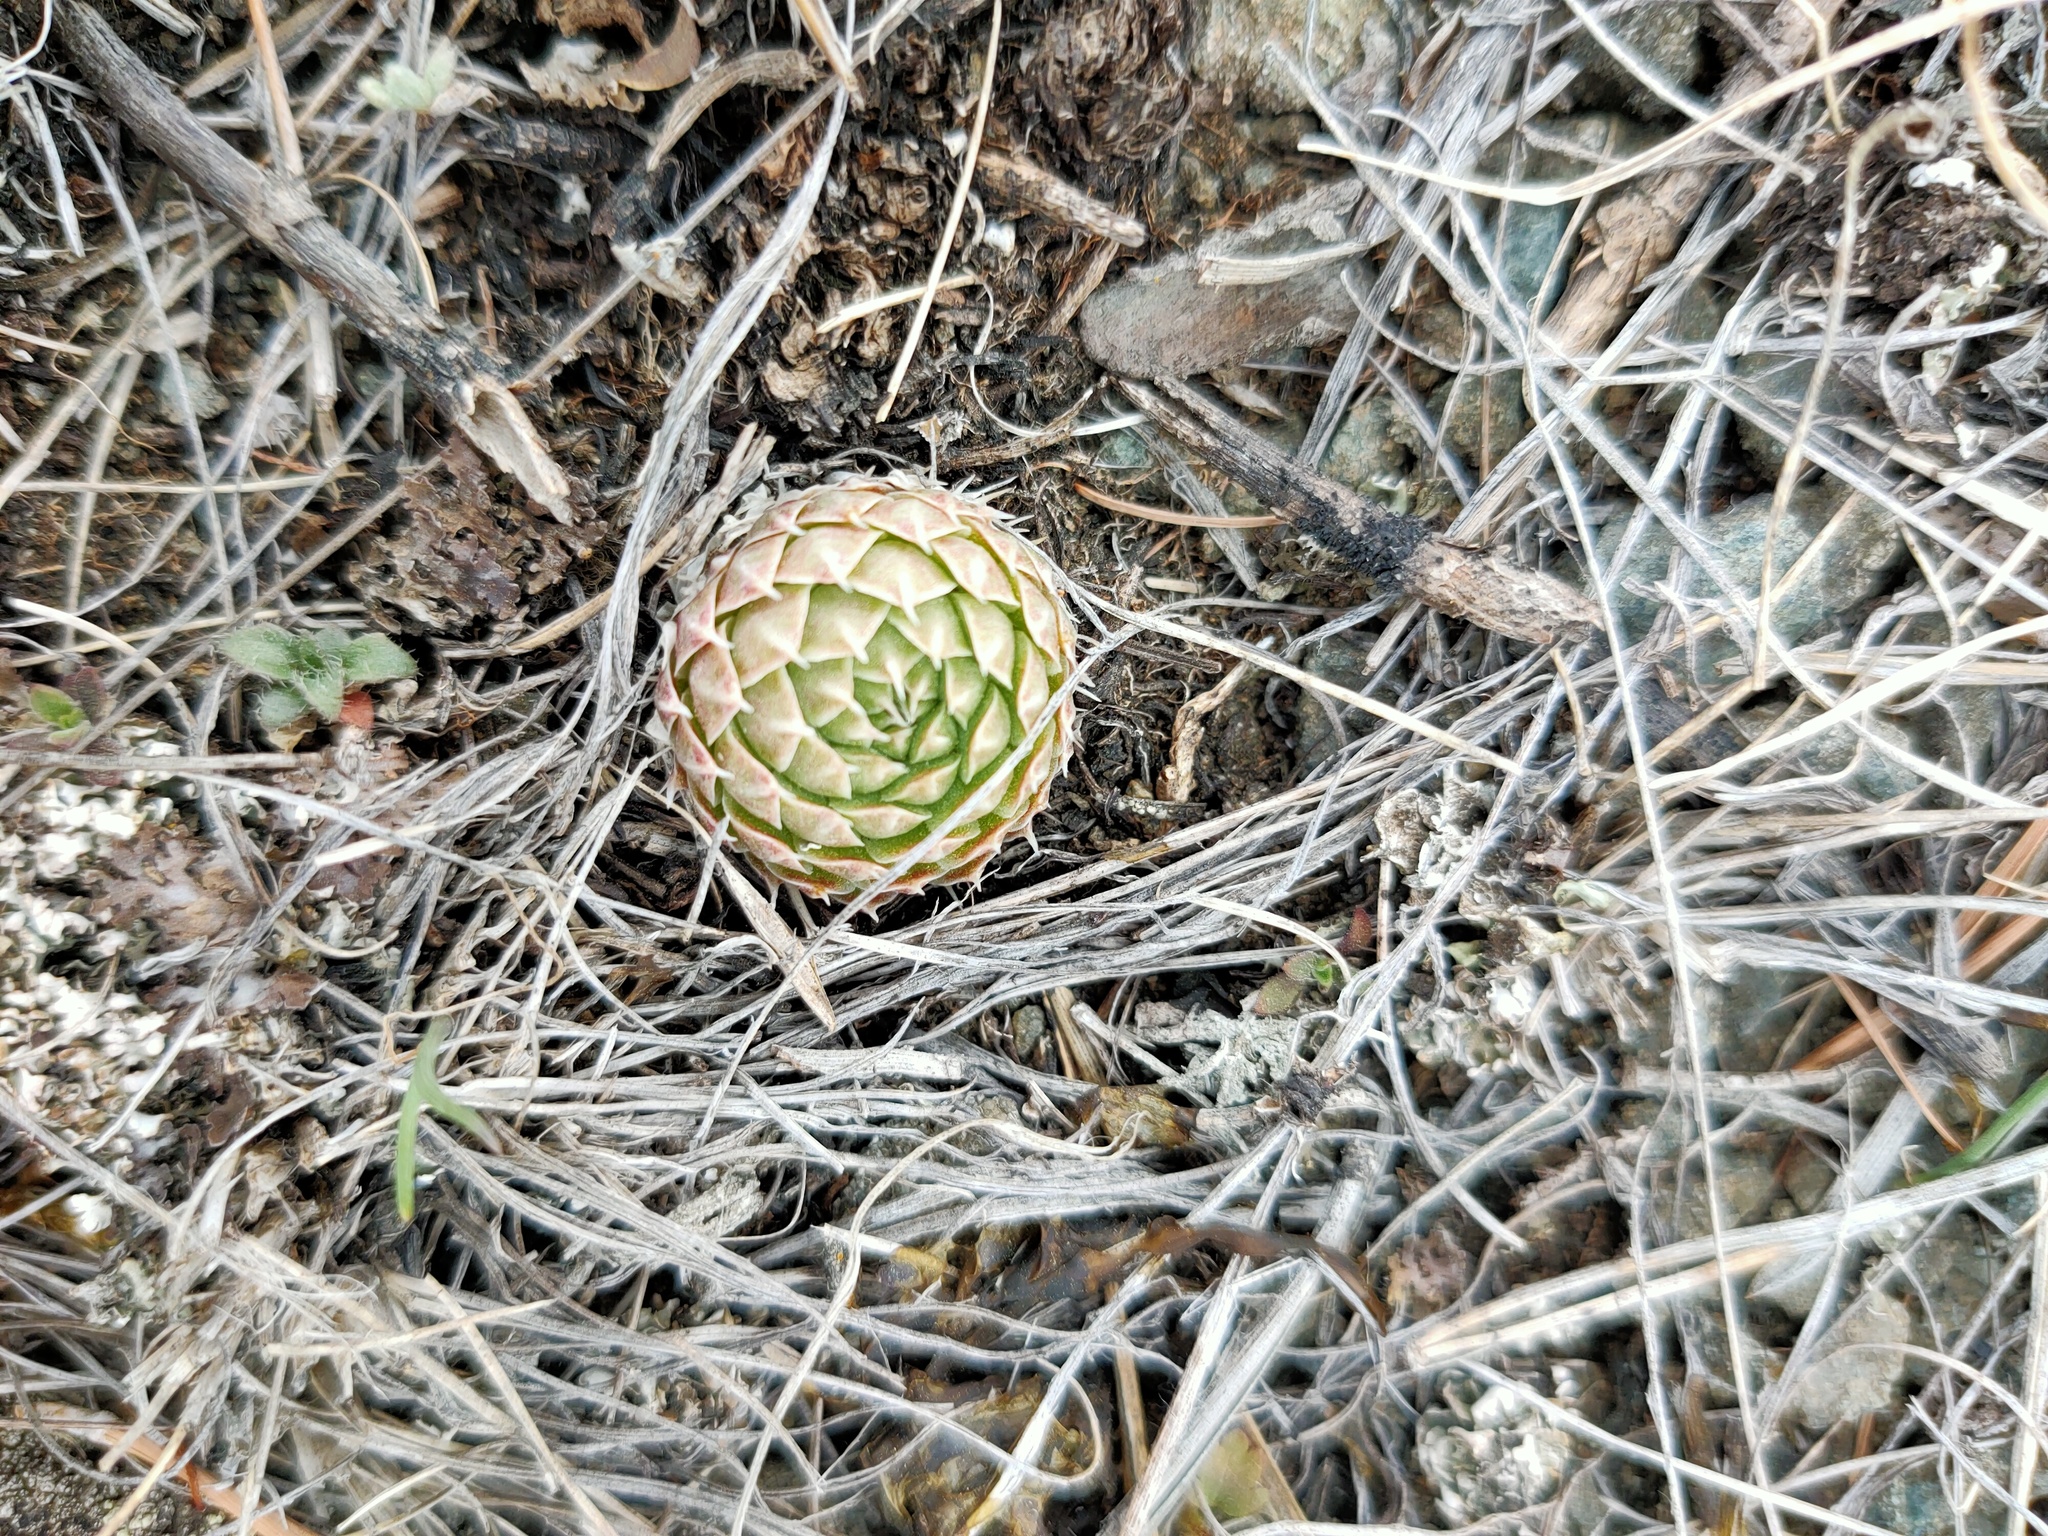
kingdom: Plantae
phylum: Tracheophyta
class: Magnoliopsida
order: Saxifragales
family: Crassulaceae
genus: Orostachys
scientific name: Orostachys spinosa
